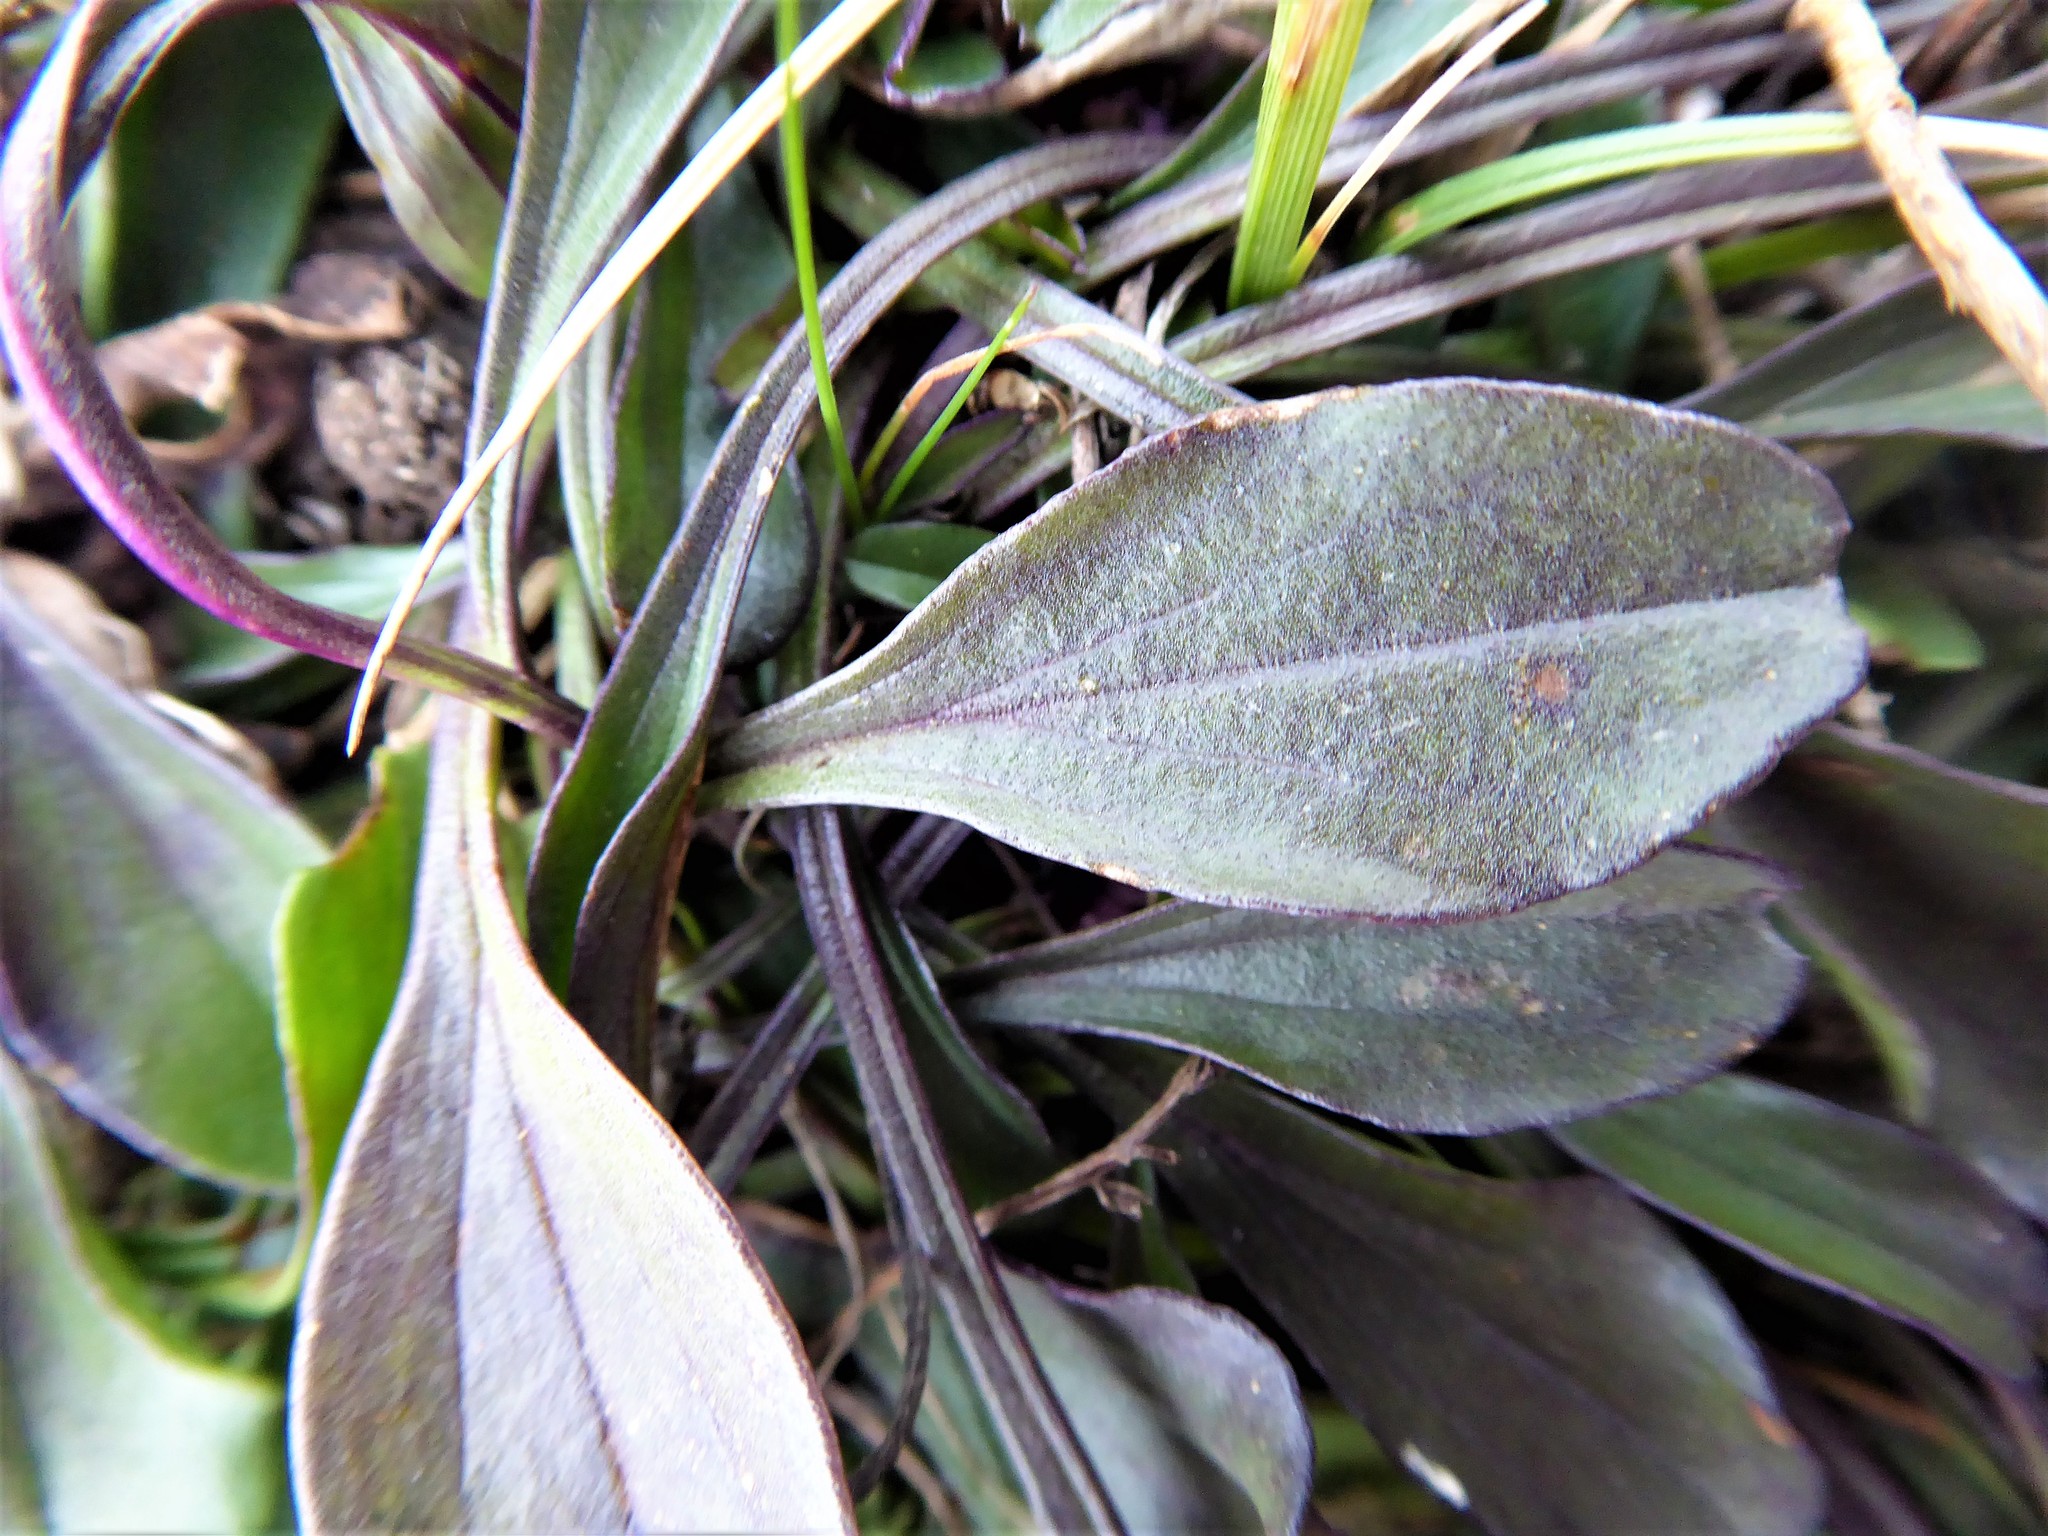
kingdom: Plantae
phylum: Tracheophyta
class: Magnoliopsida
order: Lamiales
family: Plantaginaceae
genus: Globularia
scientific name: Globularia bisnagarica
